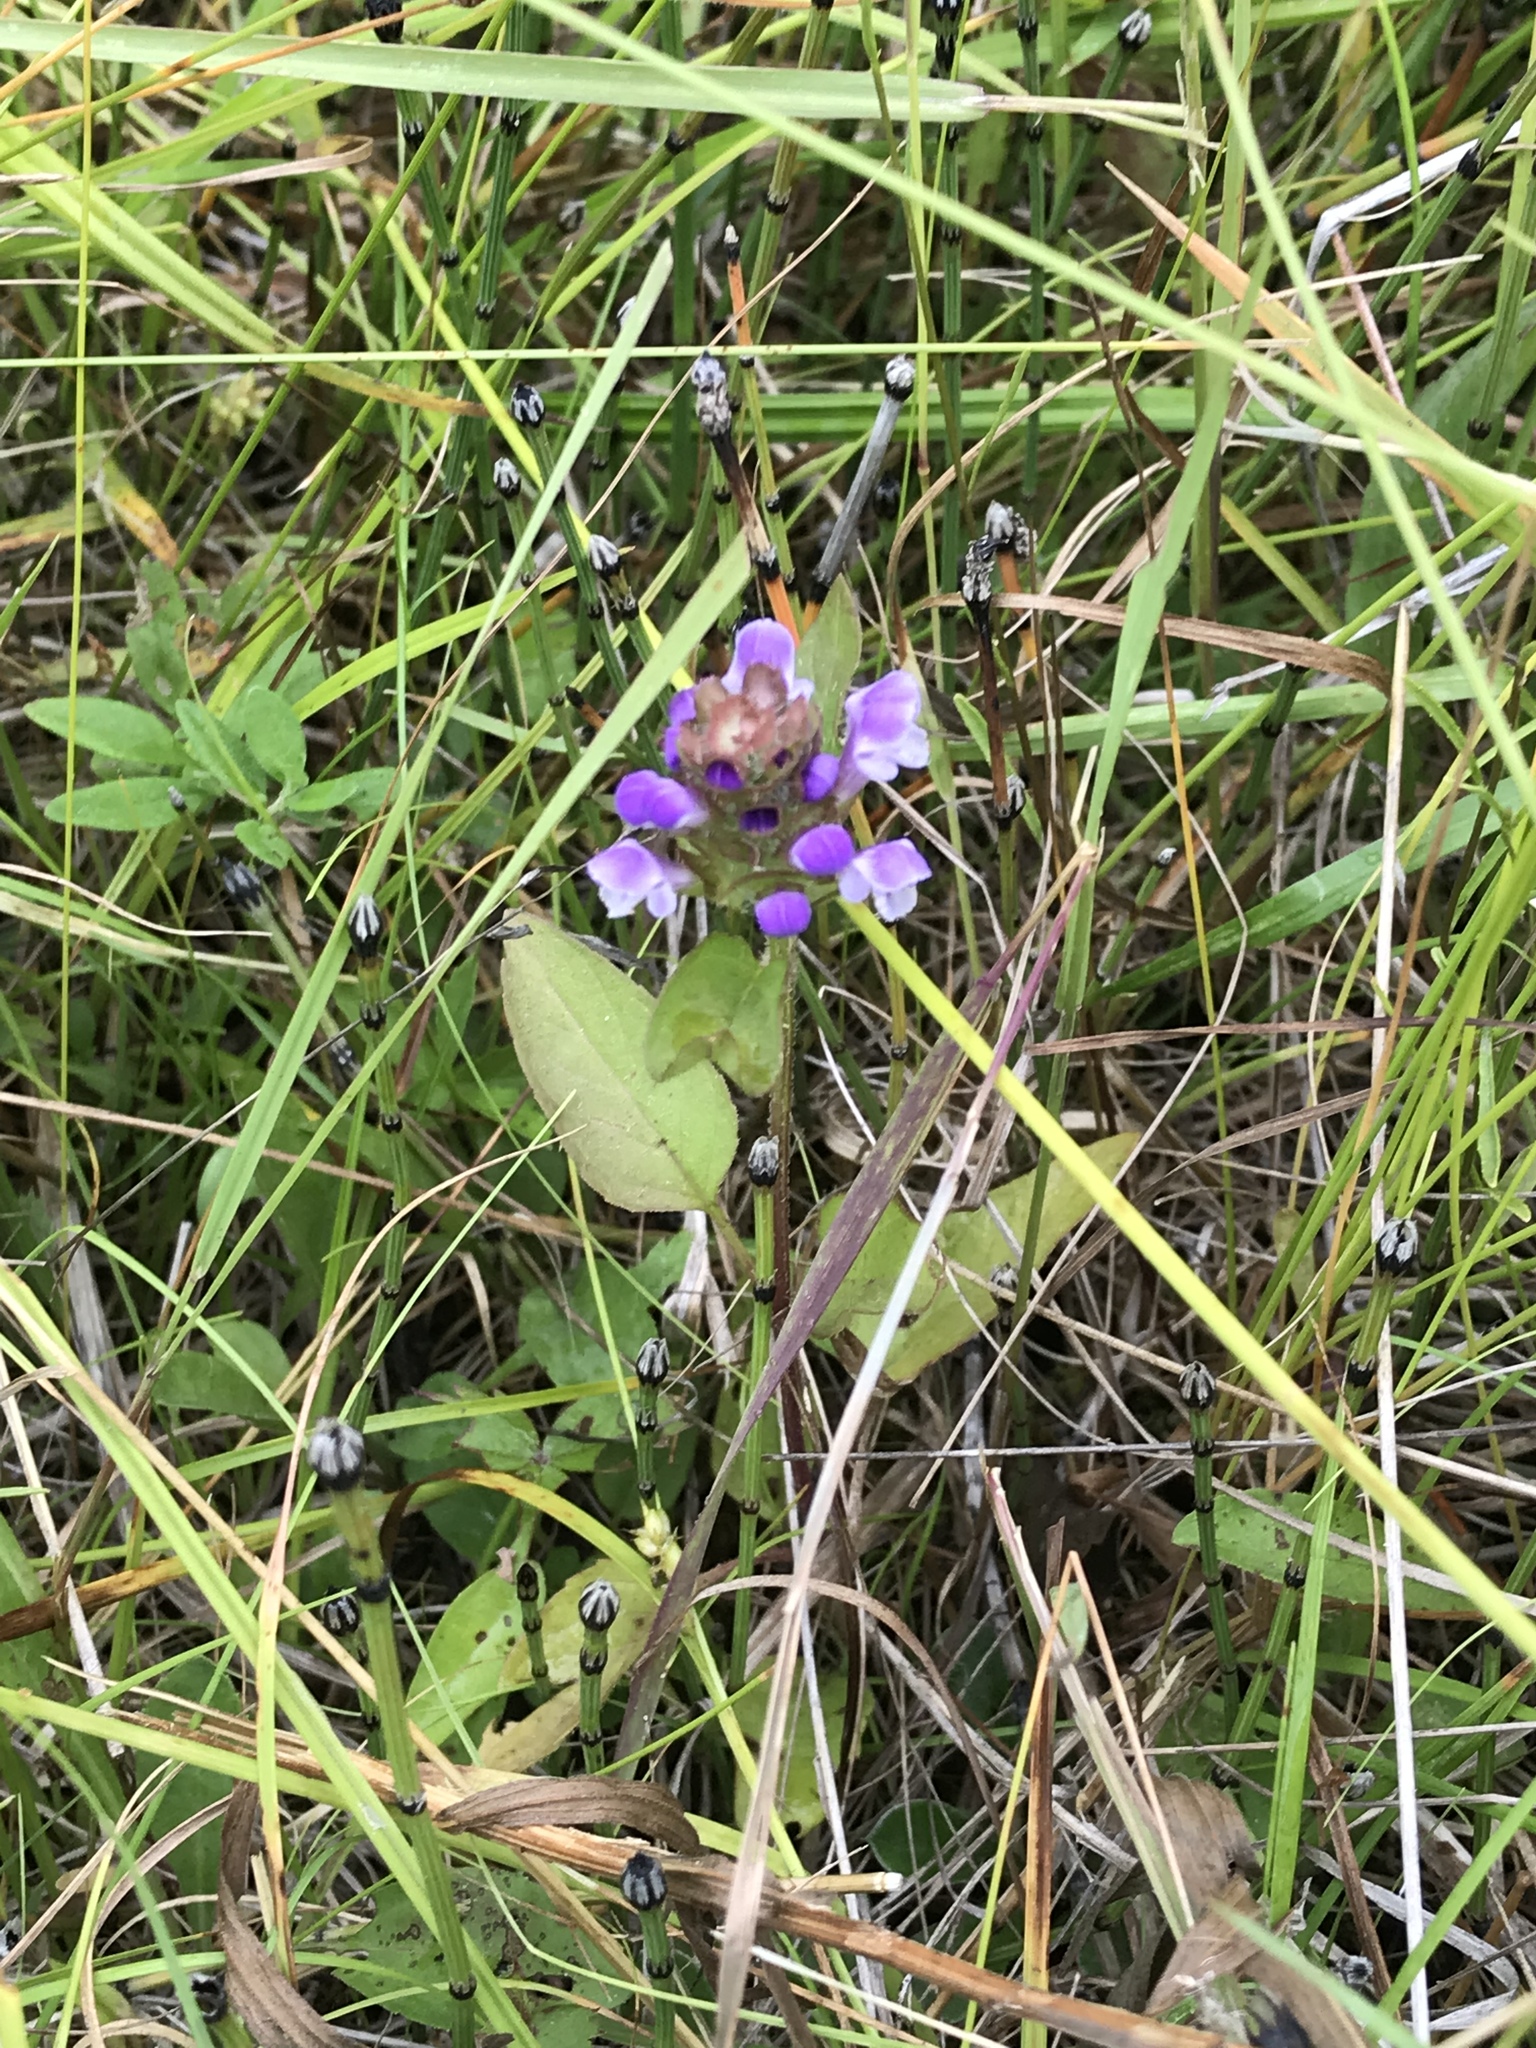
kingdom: Plantae
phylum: Tracheophyta
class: Magnoliopsida
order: Lamiales
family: Lamiaceae
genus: Prunella
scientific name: Prunella vulgaris
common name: Heal-all
